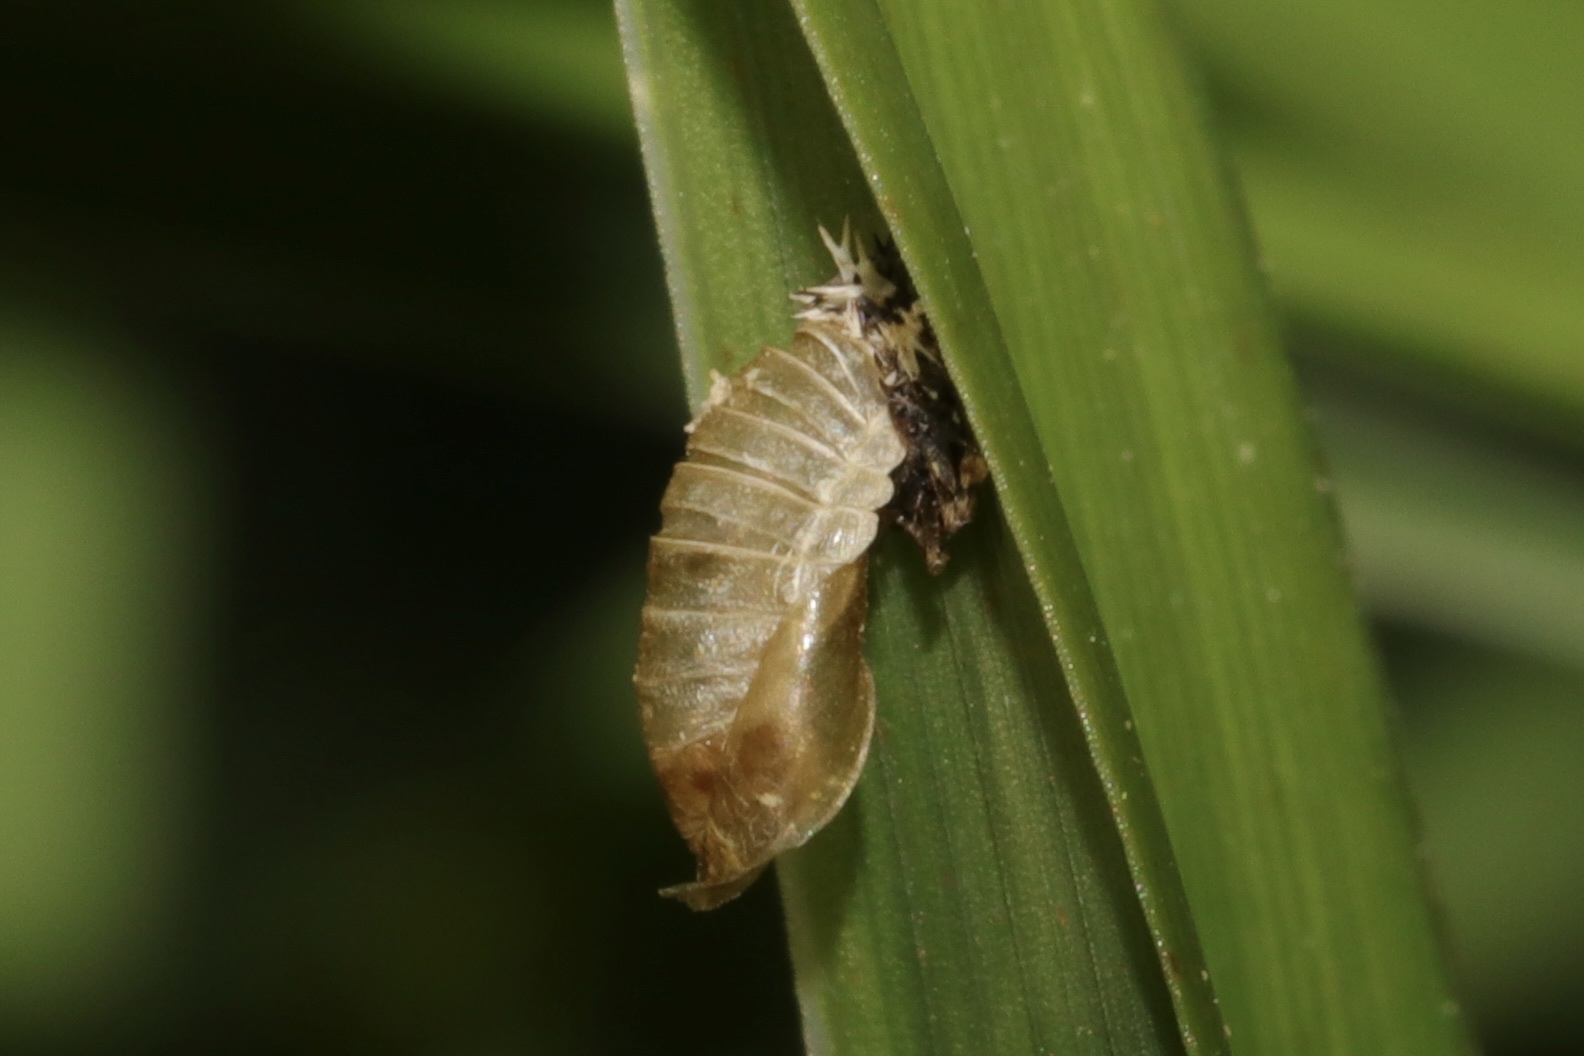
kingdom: Animalia
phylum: Arthropoda
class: Insecta
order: Coleoptera
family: Coccinellidae
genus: Harmonia
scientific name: Harmonia axyridis
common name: Harlequin ladybird
